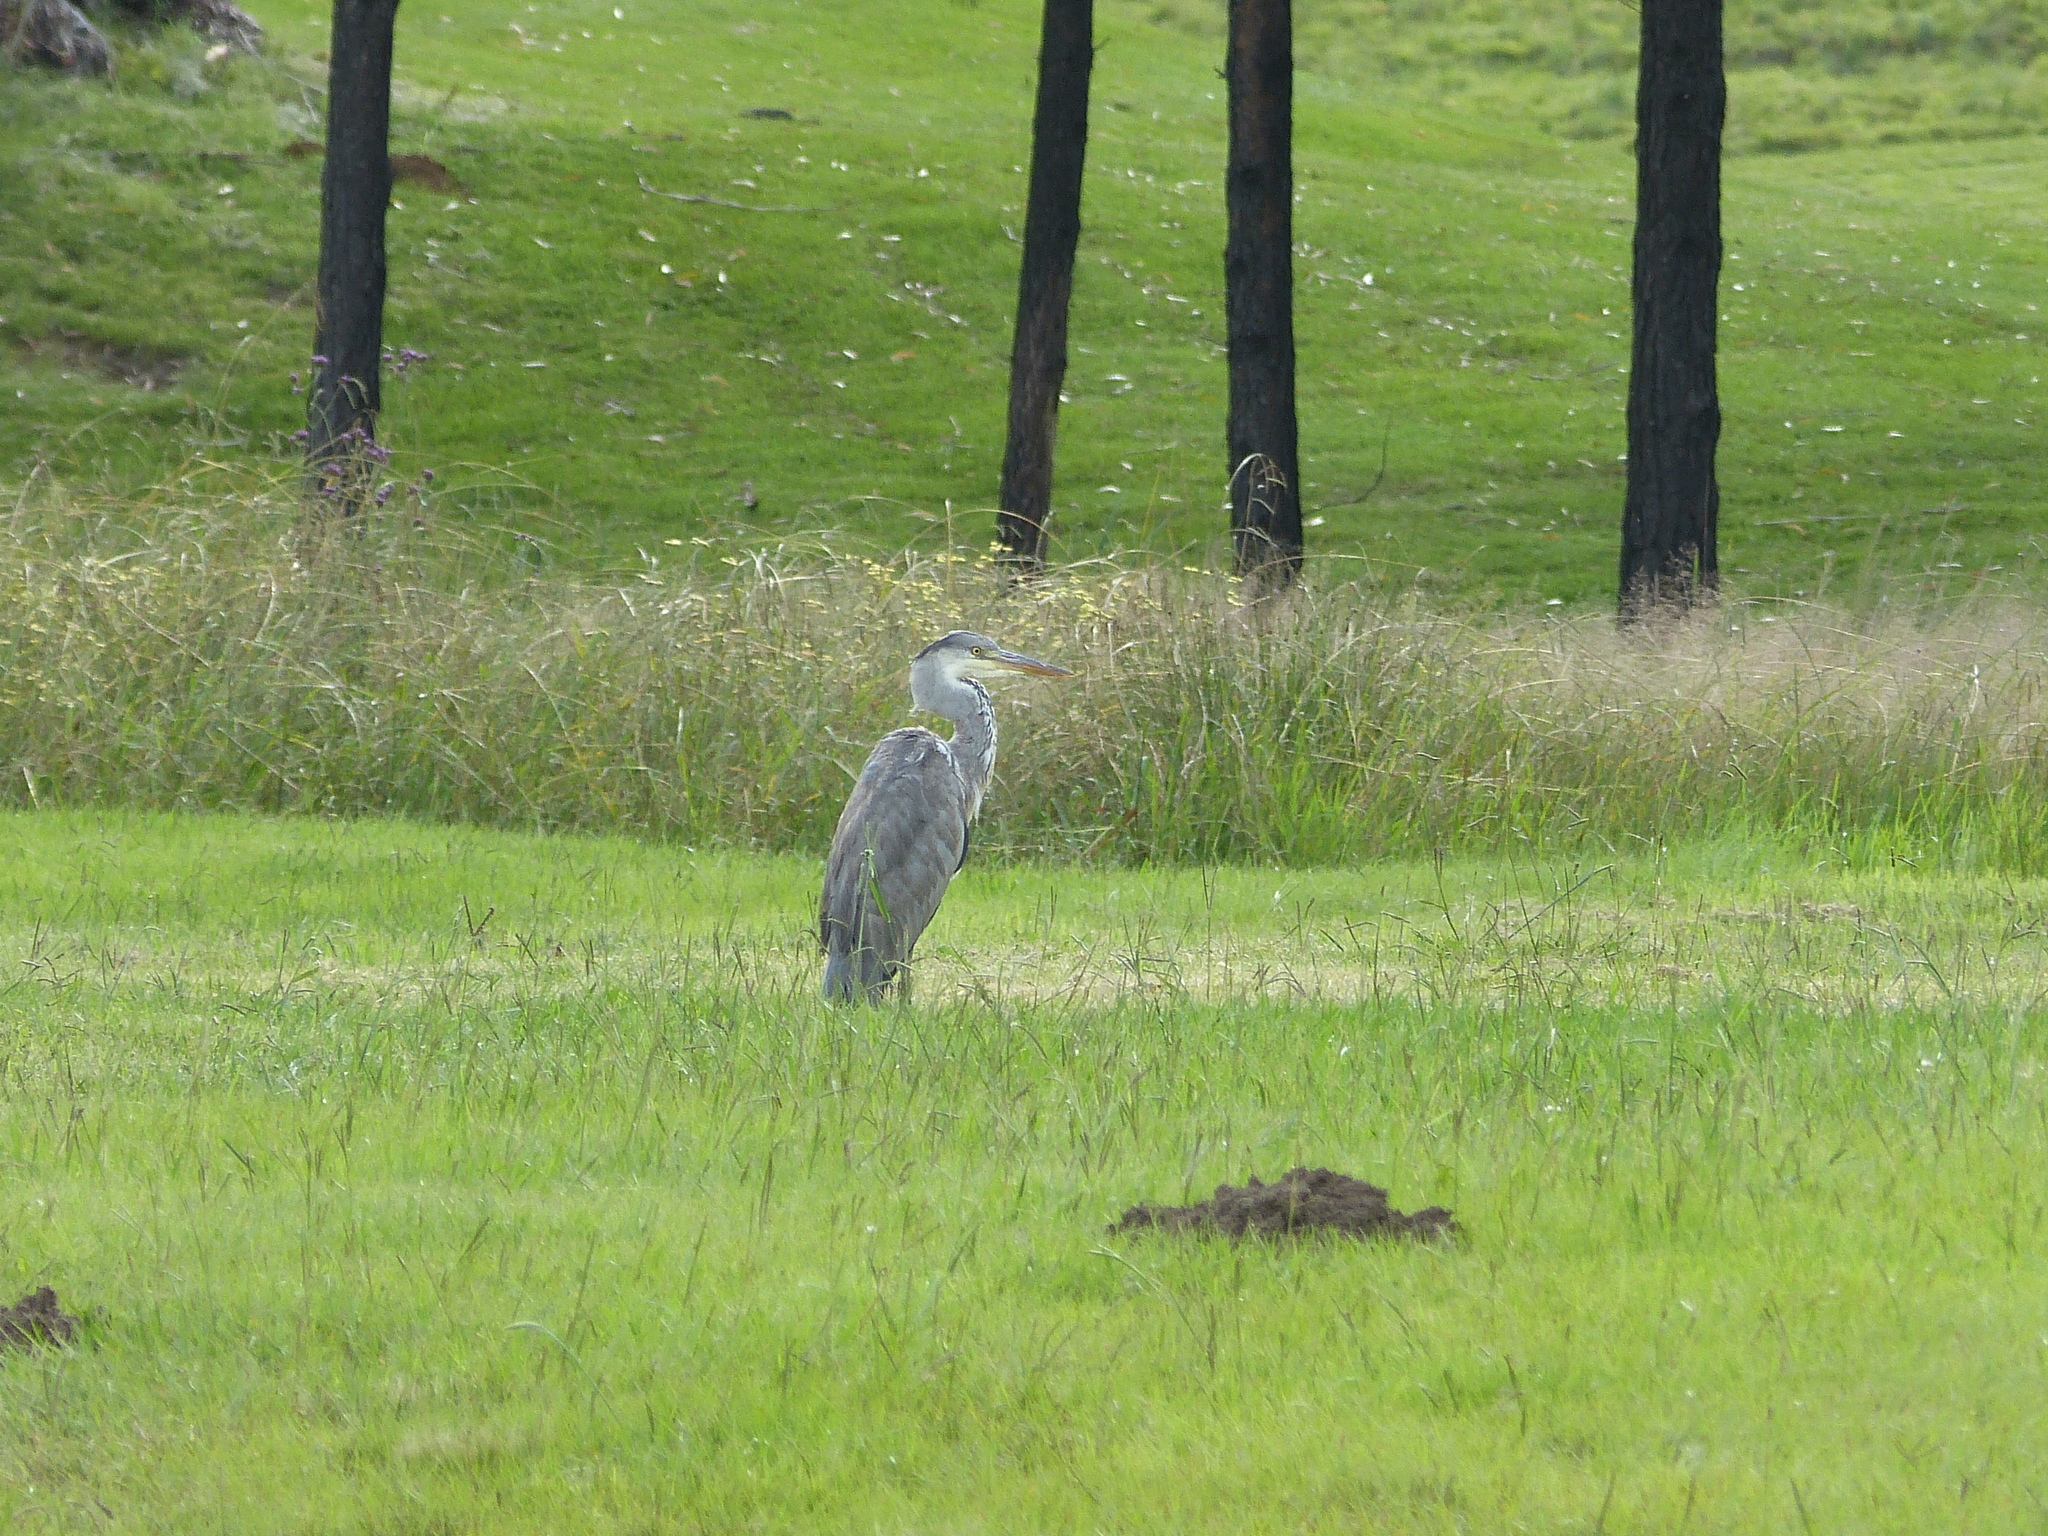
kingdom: Animalia
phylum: Chordata
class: Aves
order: Pelecaniformes
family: Ardeidae
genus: Ardea
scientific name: Ardea cinerea
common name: Grey heron
